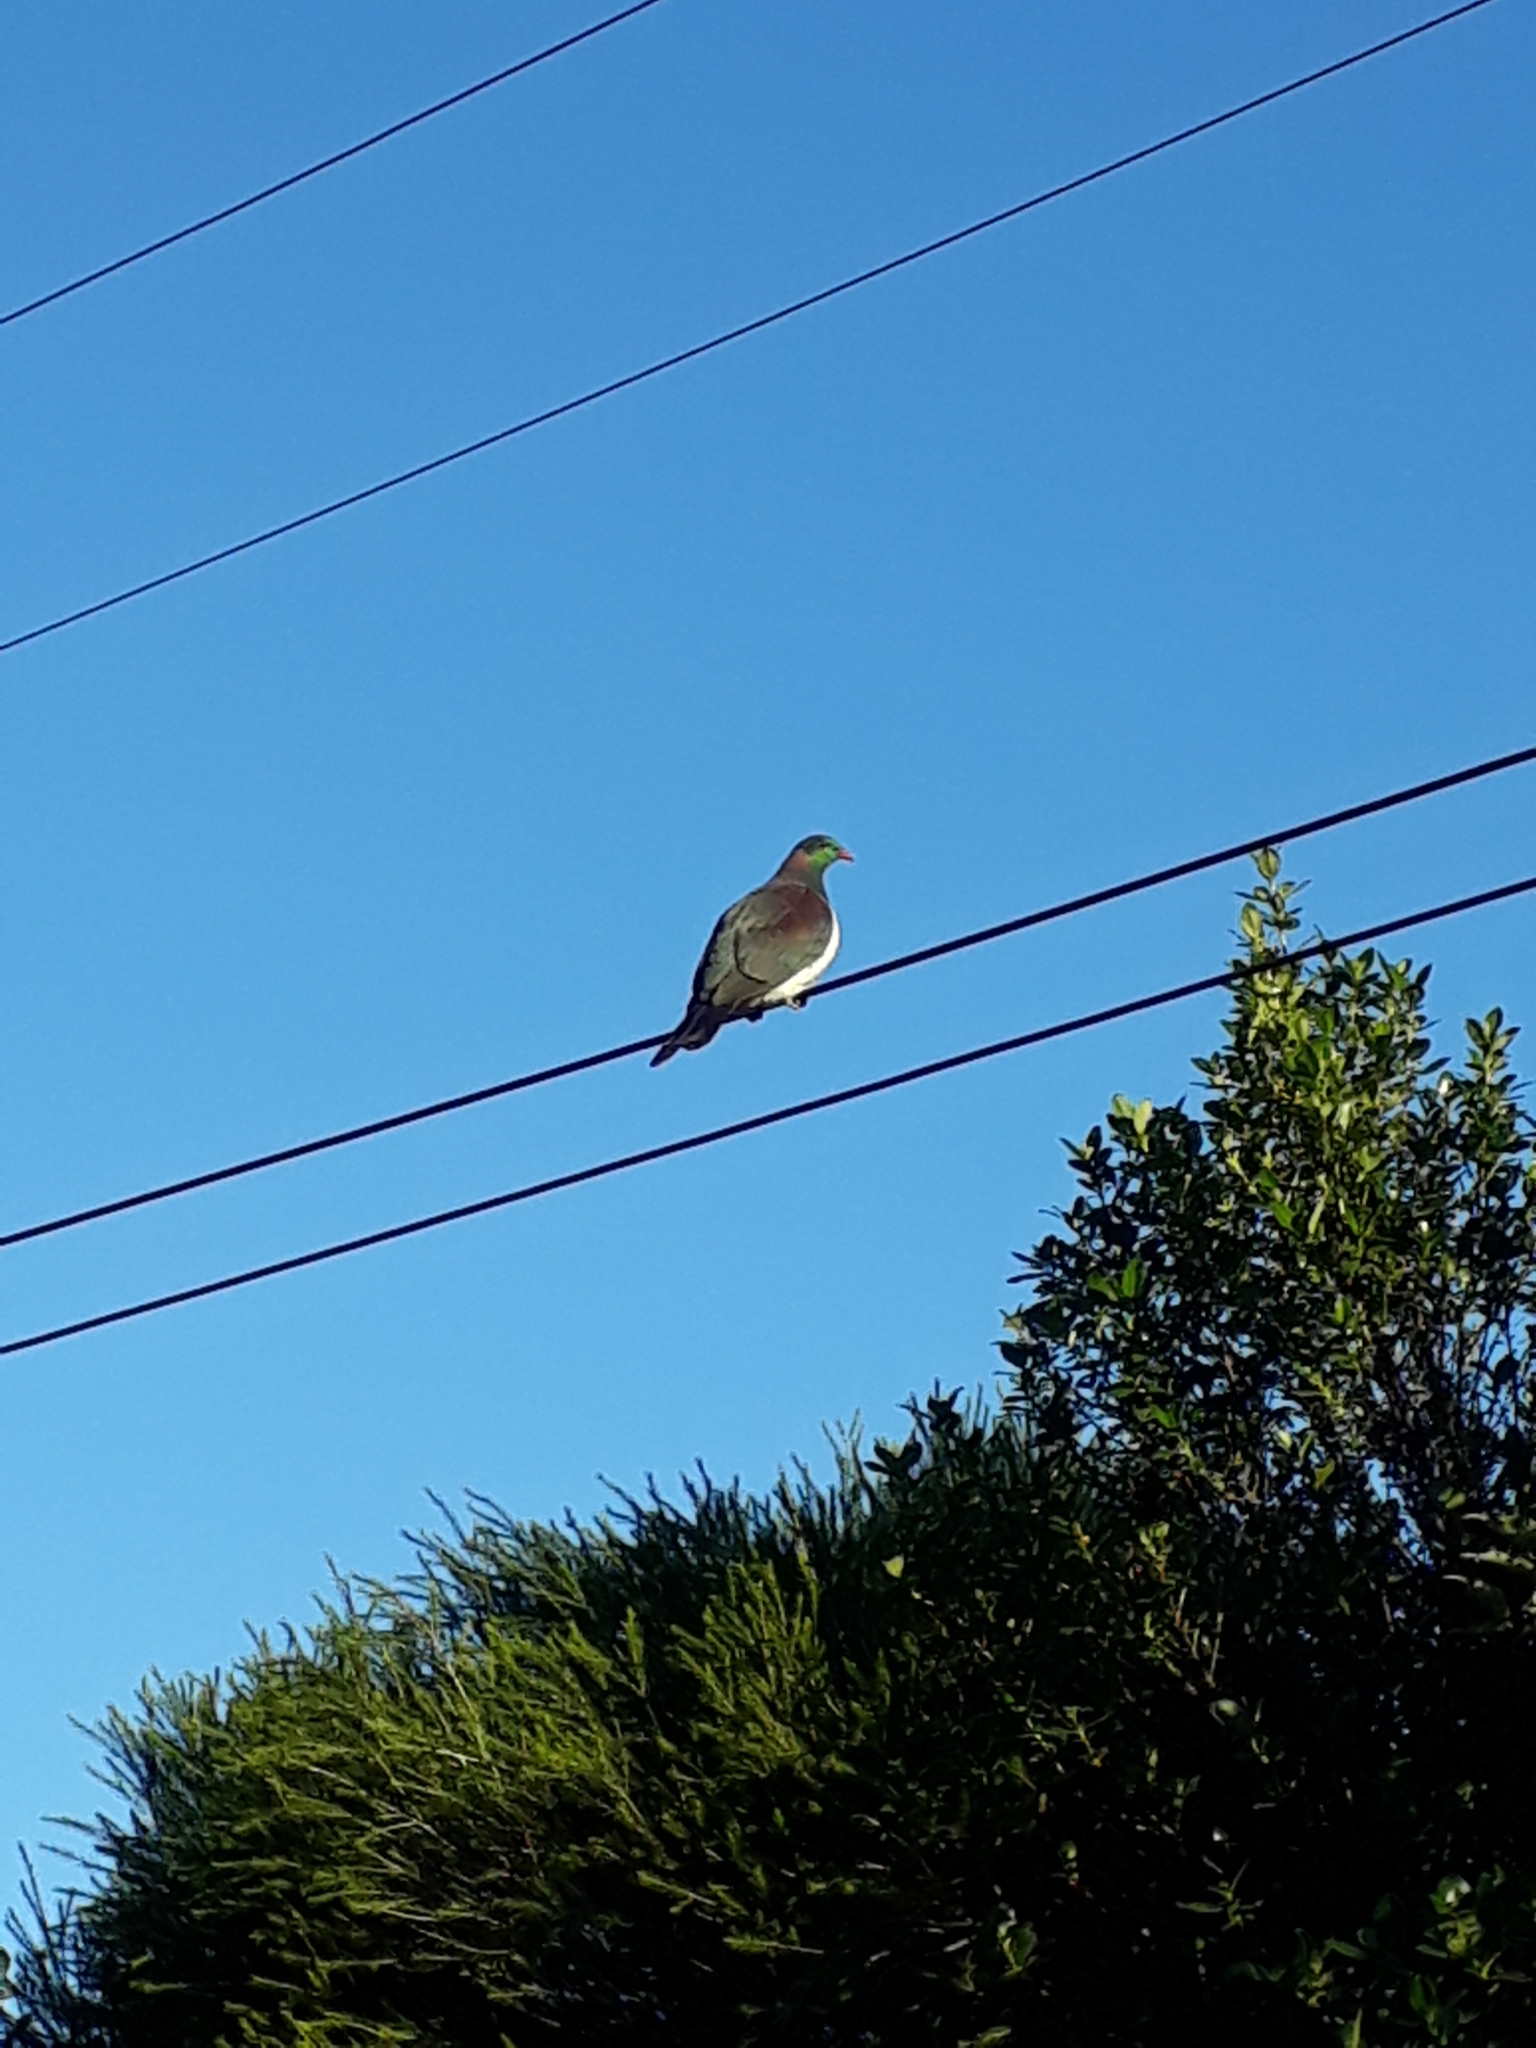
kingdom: Animalia
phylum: Chordata
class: Aves
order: Columbiformes
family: Columbidae
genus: Hemiphaga
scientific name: Hemiphaga novaeseelandiae
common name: New zealand pigeon
